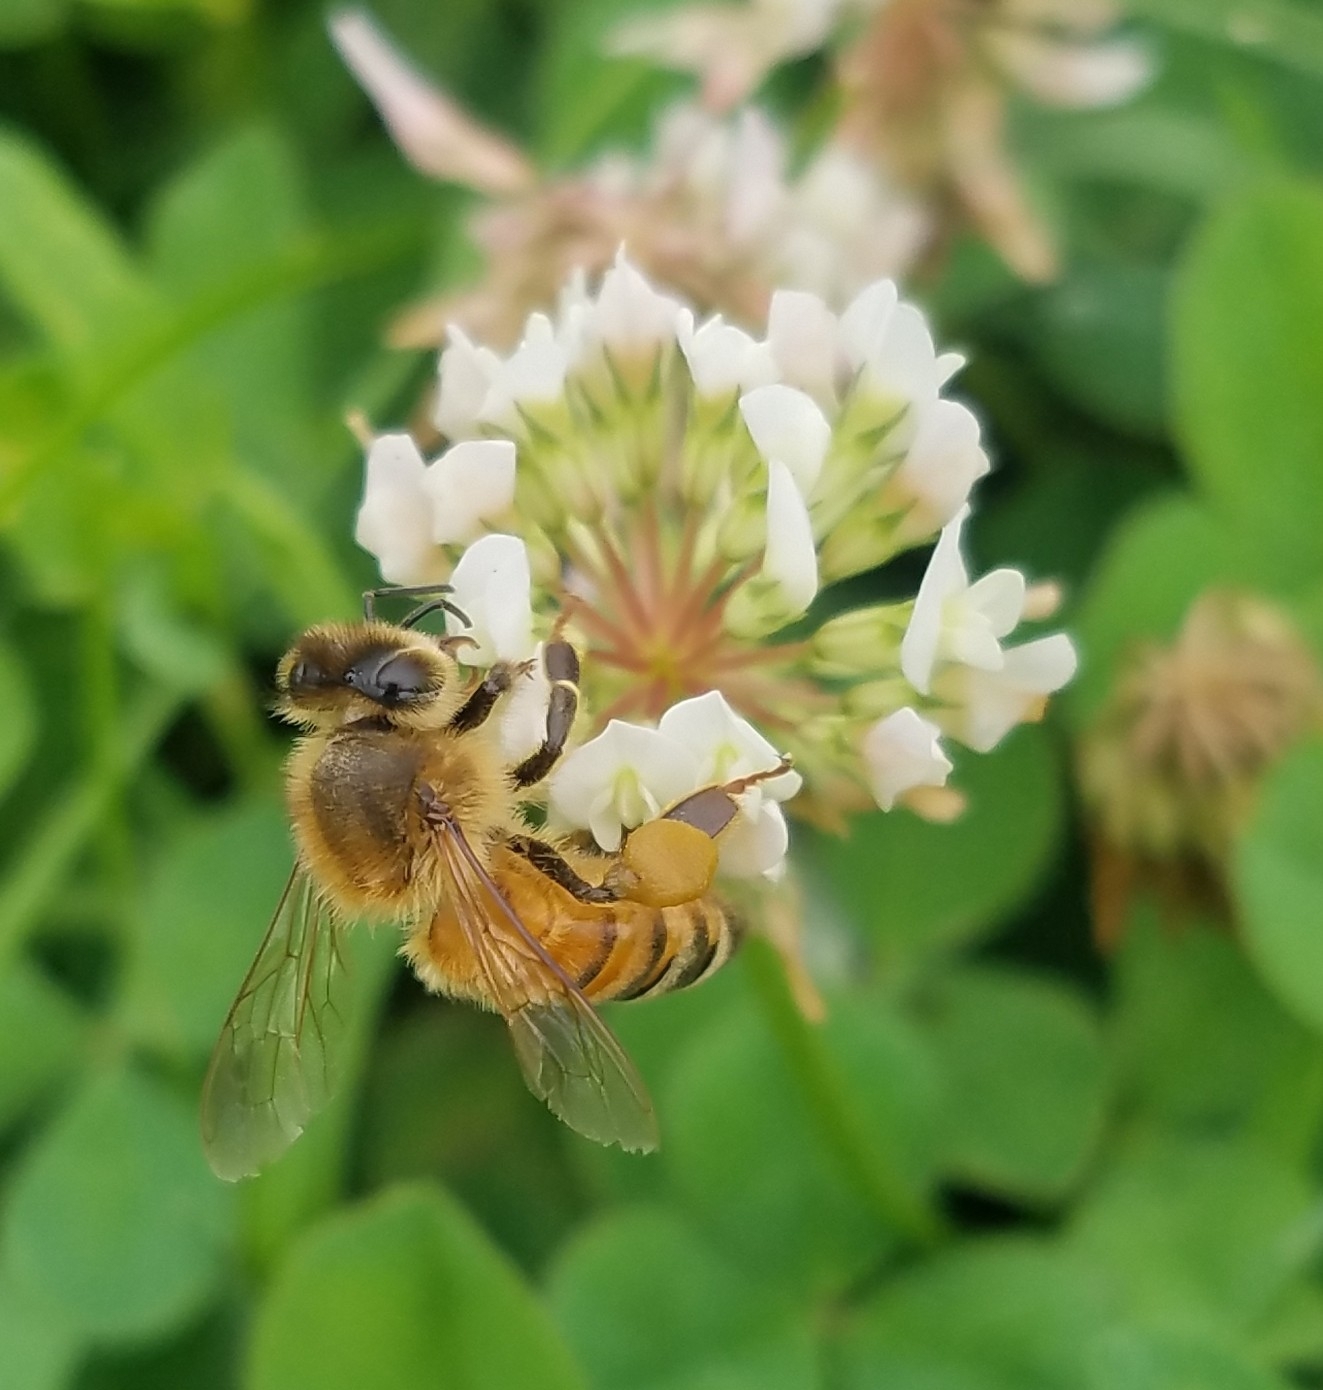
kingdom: Animalia
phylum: Arthropoda
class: Insecta
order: Hymenoptera
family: Apidae
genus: Apis
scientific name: Apis mellifera
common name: Honey bee
